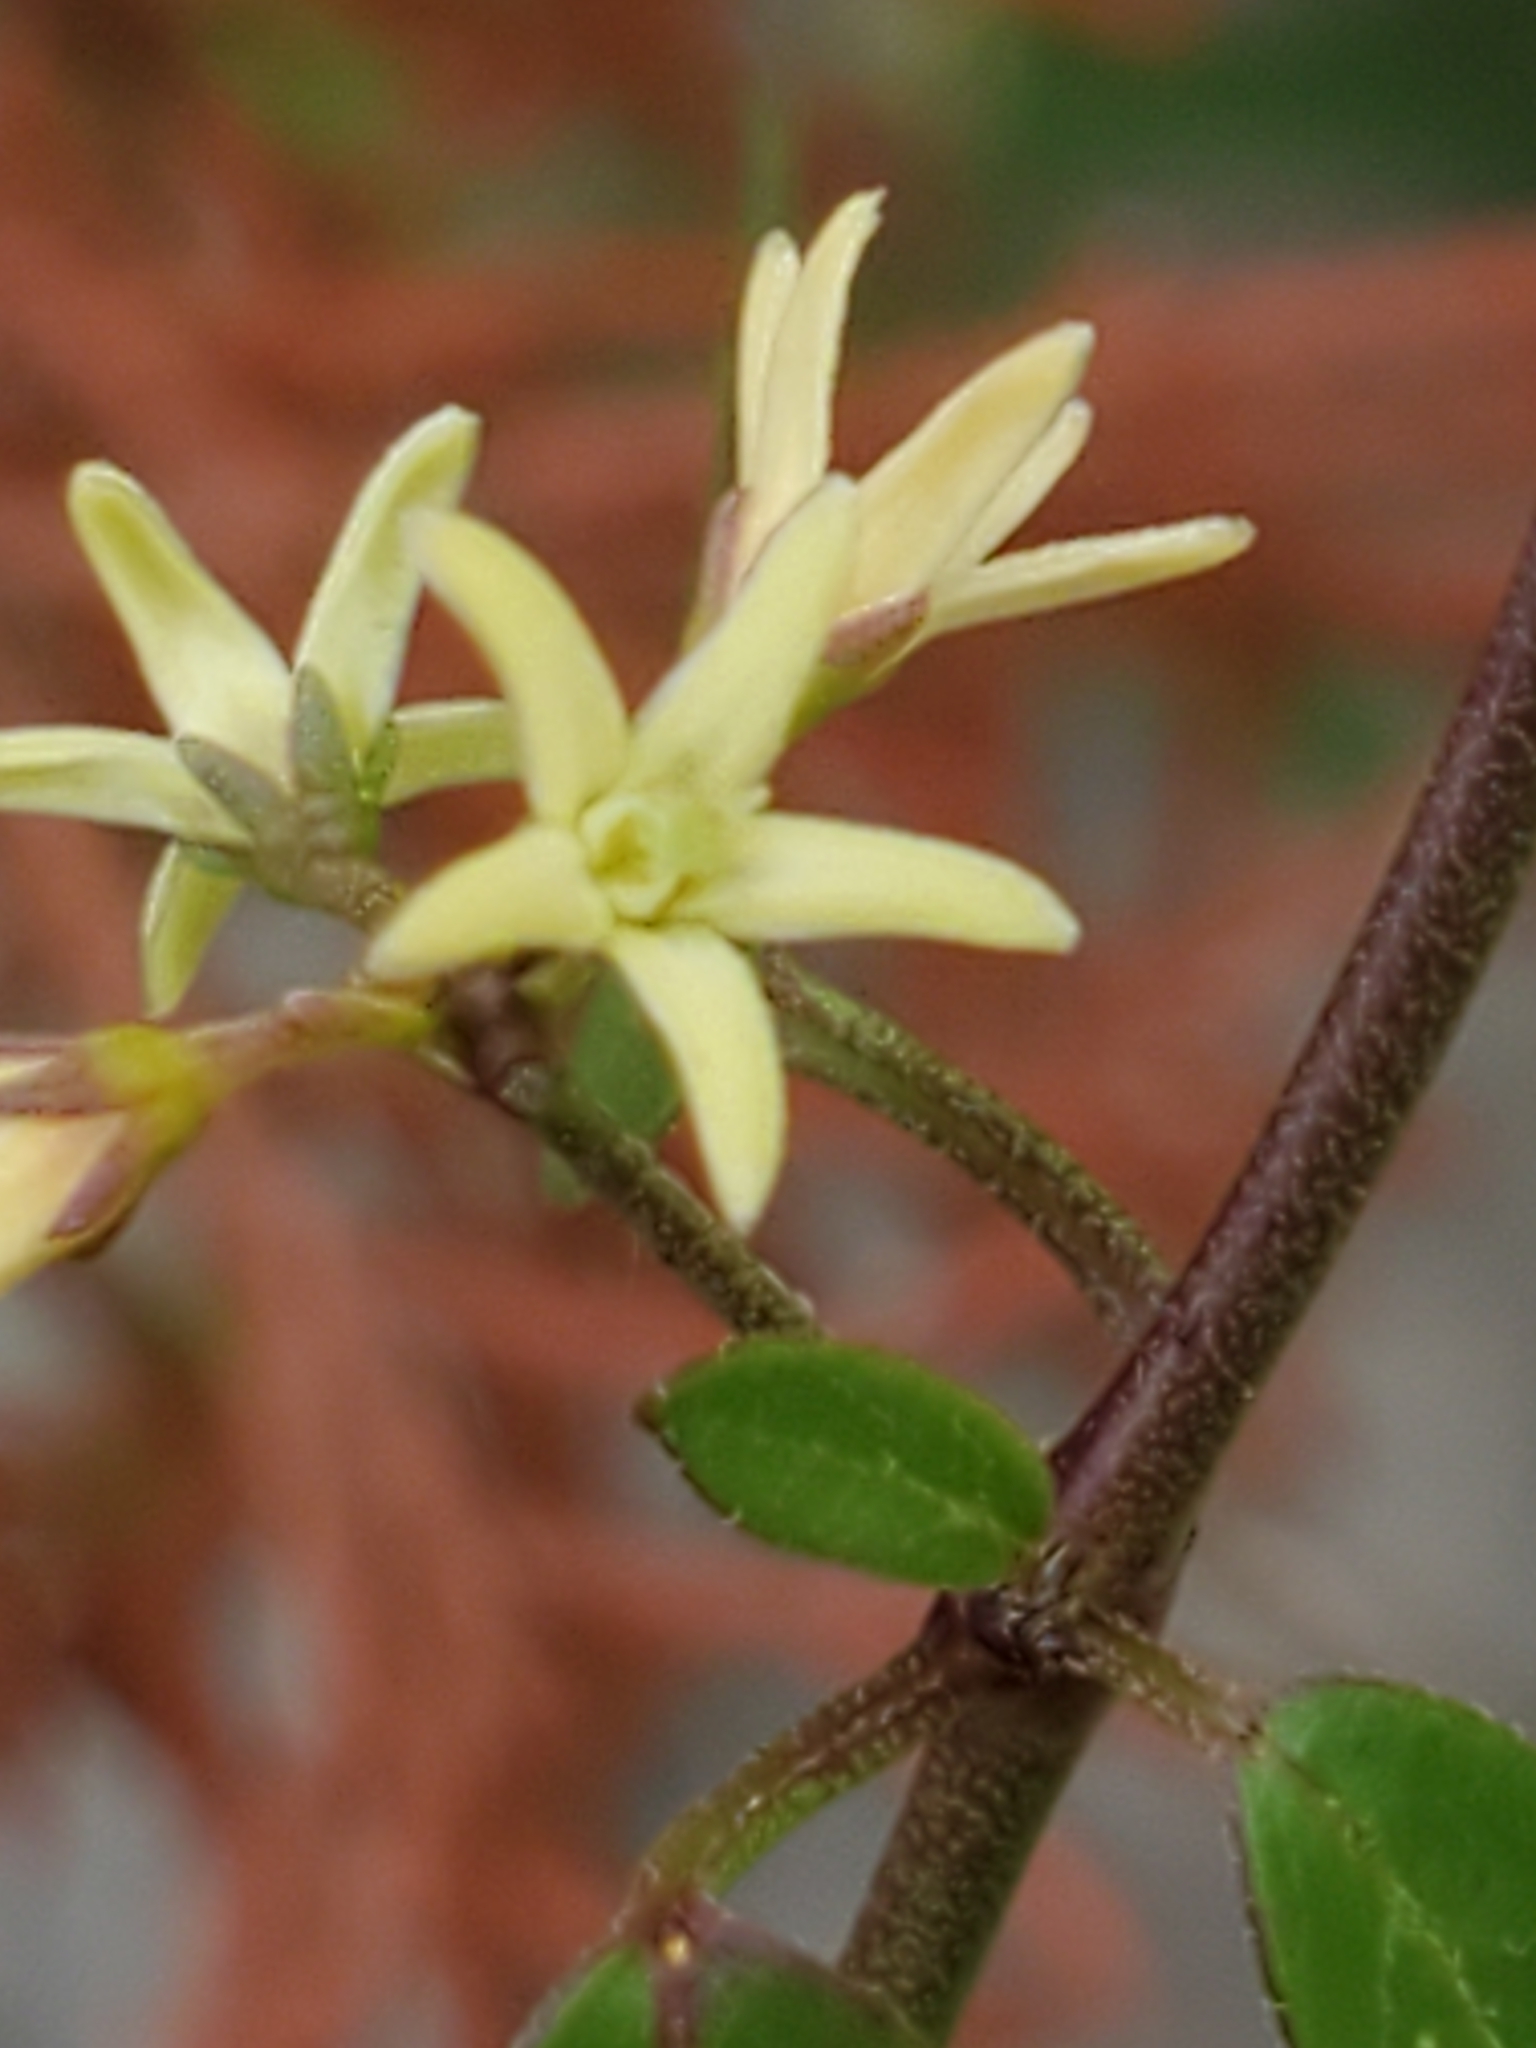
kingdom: Plantae
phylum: Tracheophyta
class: Magnoliopsida
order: Gentianales
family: Apocynaceae
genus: Metastelma
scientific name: Metastelma palmeri
